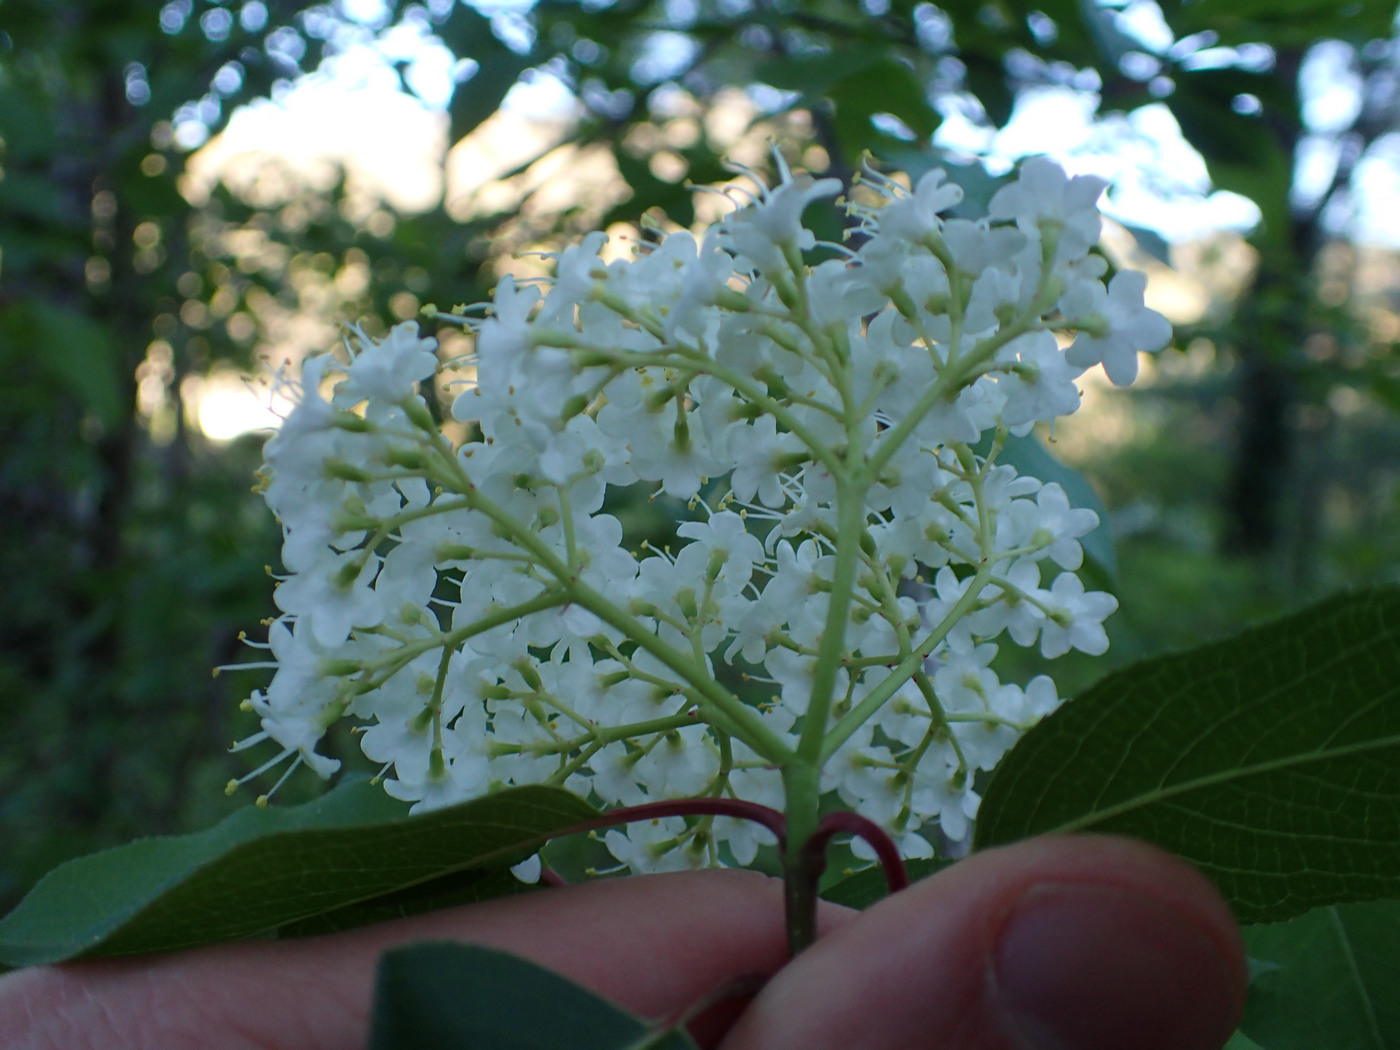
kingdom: Plantae
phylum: Tracheophyta
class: Magnoliopsida
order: Dipsacales
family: Viburnaceae
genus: Viburnum
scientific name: Viburnum prunifolium
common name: Black haw
